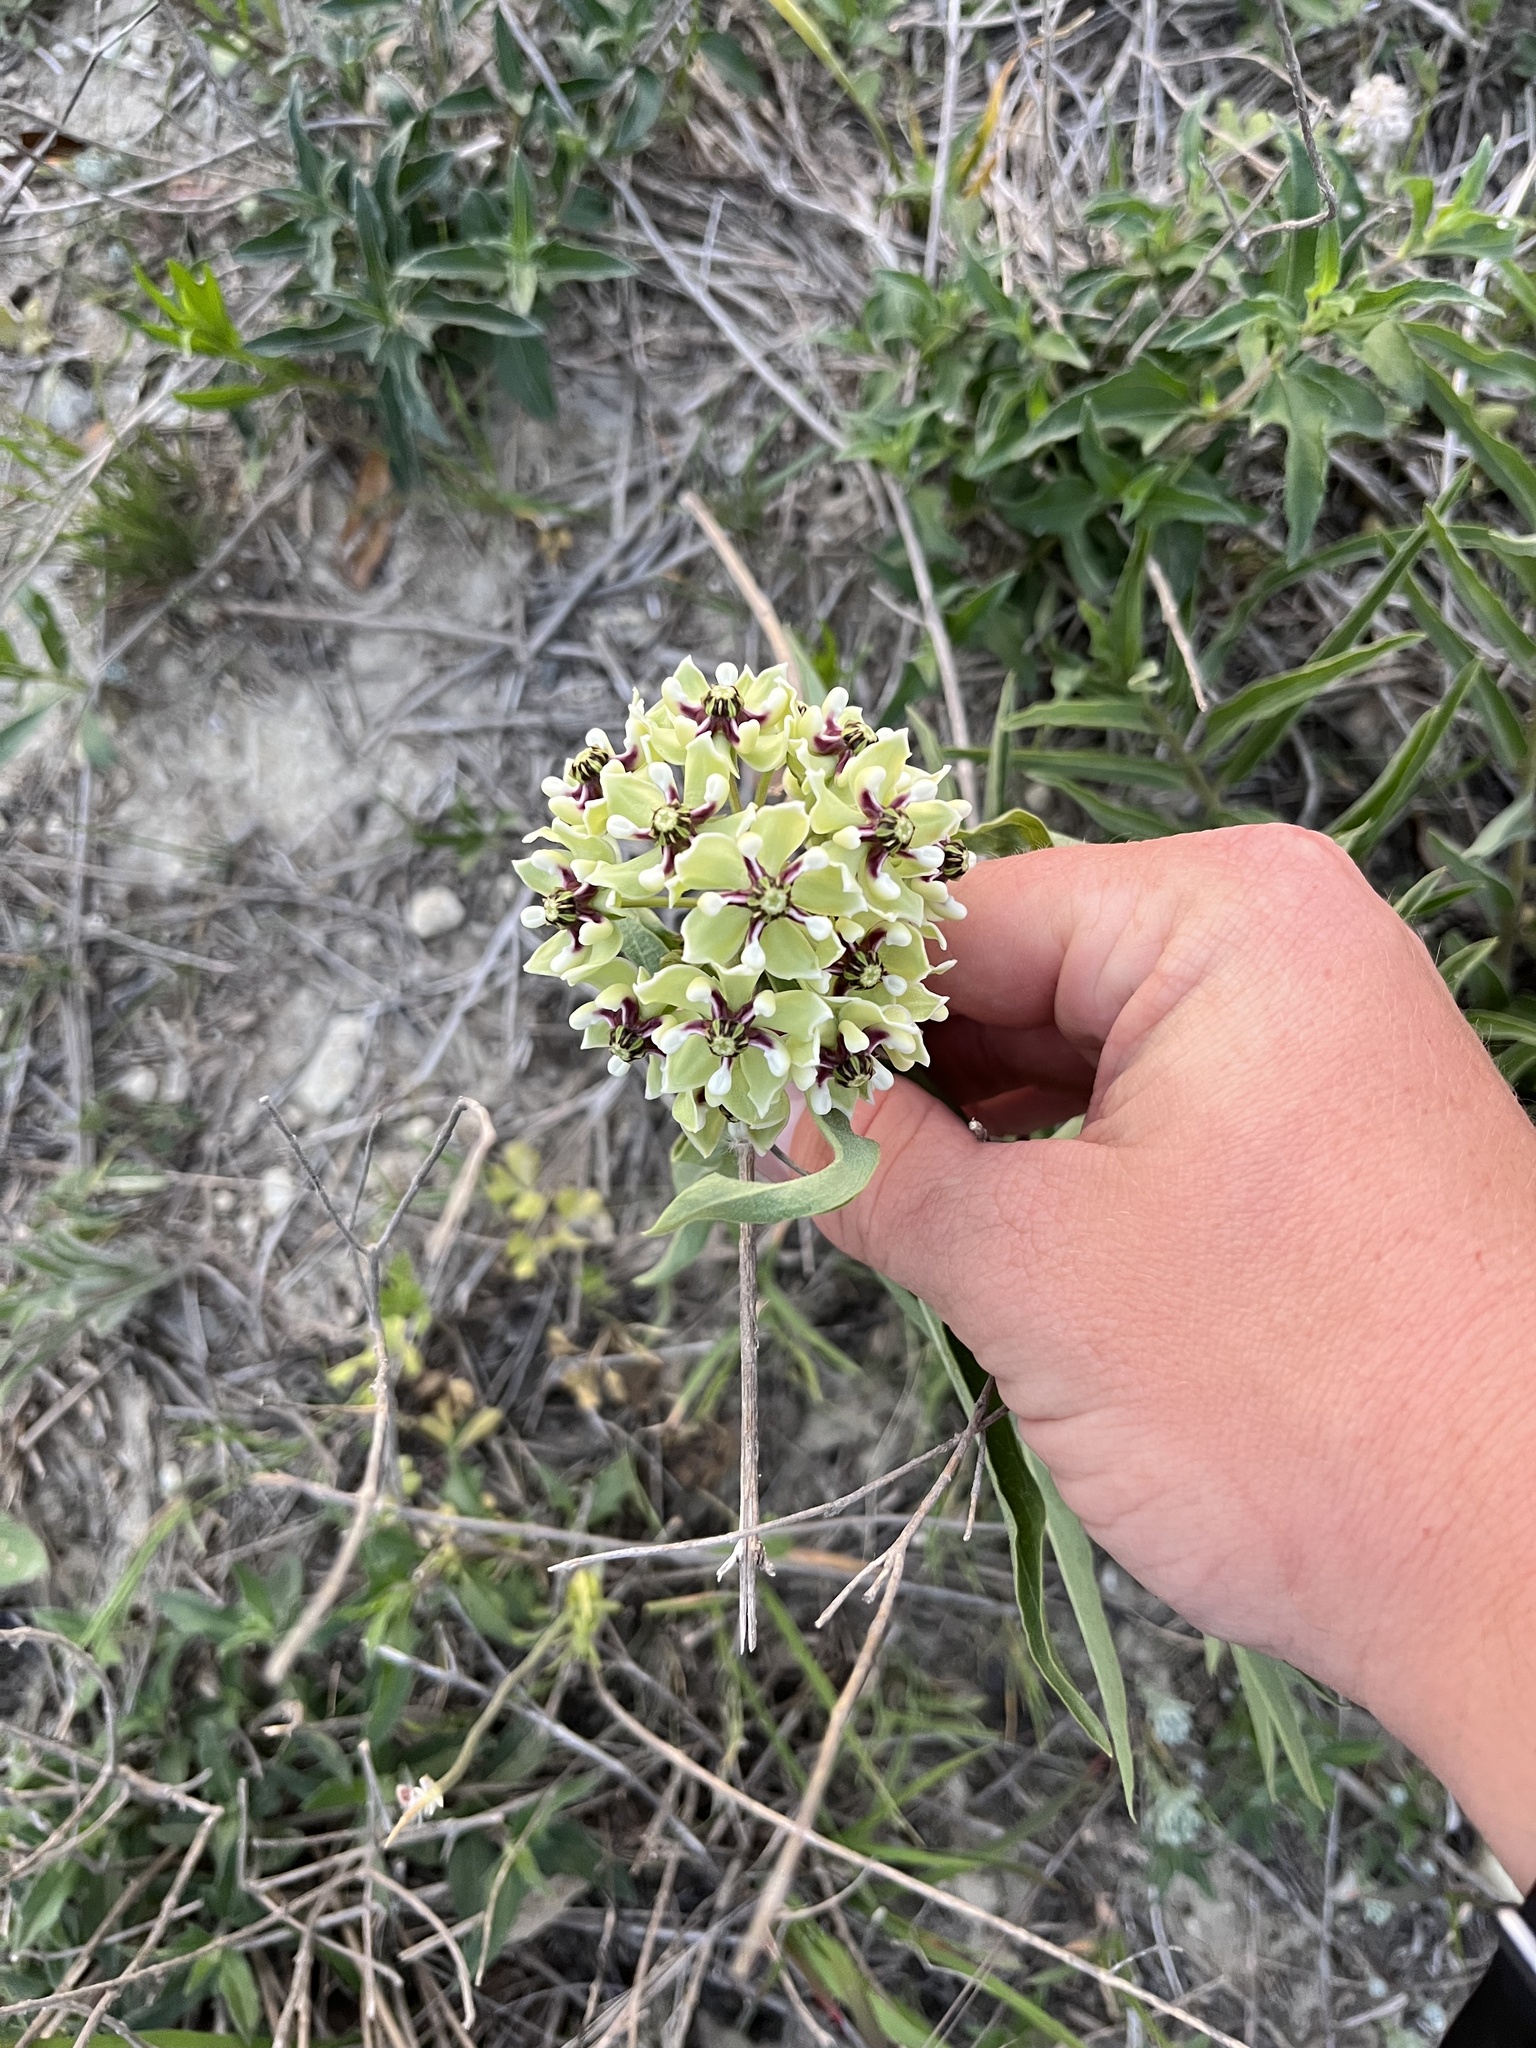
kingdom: Plantae
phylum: Tracheophyta
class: Magnoliopsida
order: Gentianales
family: Apocynaceae
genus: Asclepias
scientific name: Asclepias asperula
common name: Antelope horns
